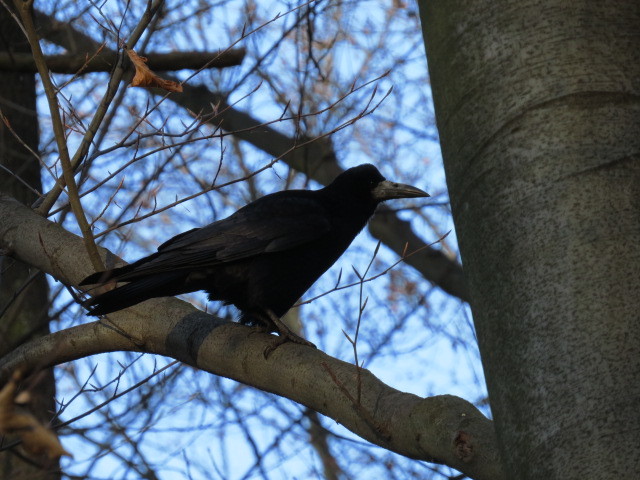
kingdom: Animalia
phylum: Chordata
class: Aves
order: Passeriformes
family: Corvidae
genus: Corvus
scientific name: Corvus frugilegus
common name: Rook
